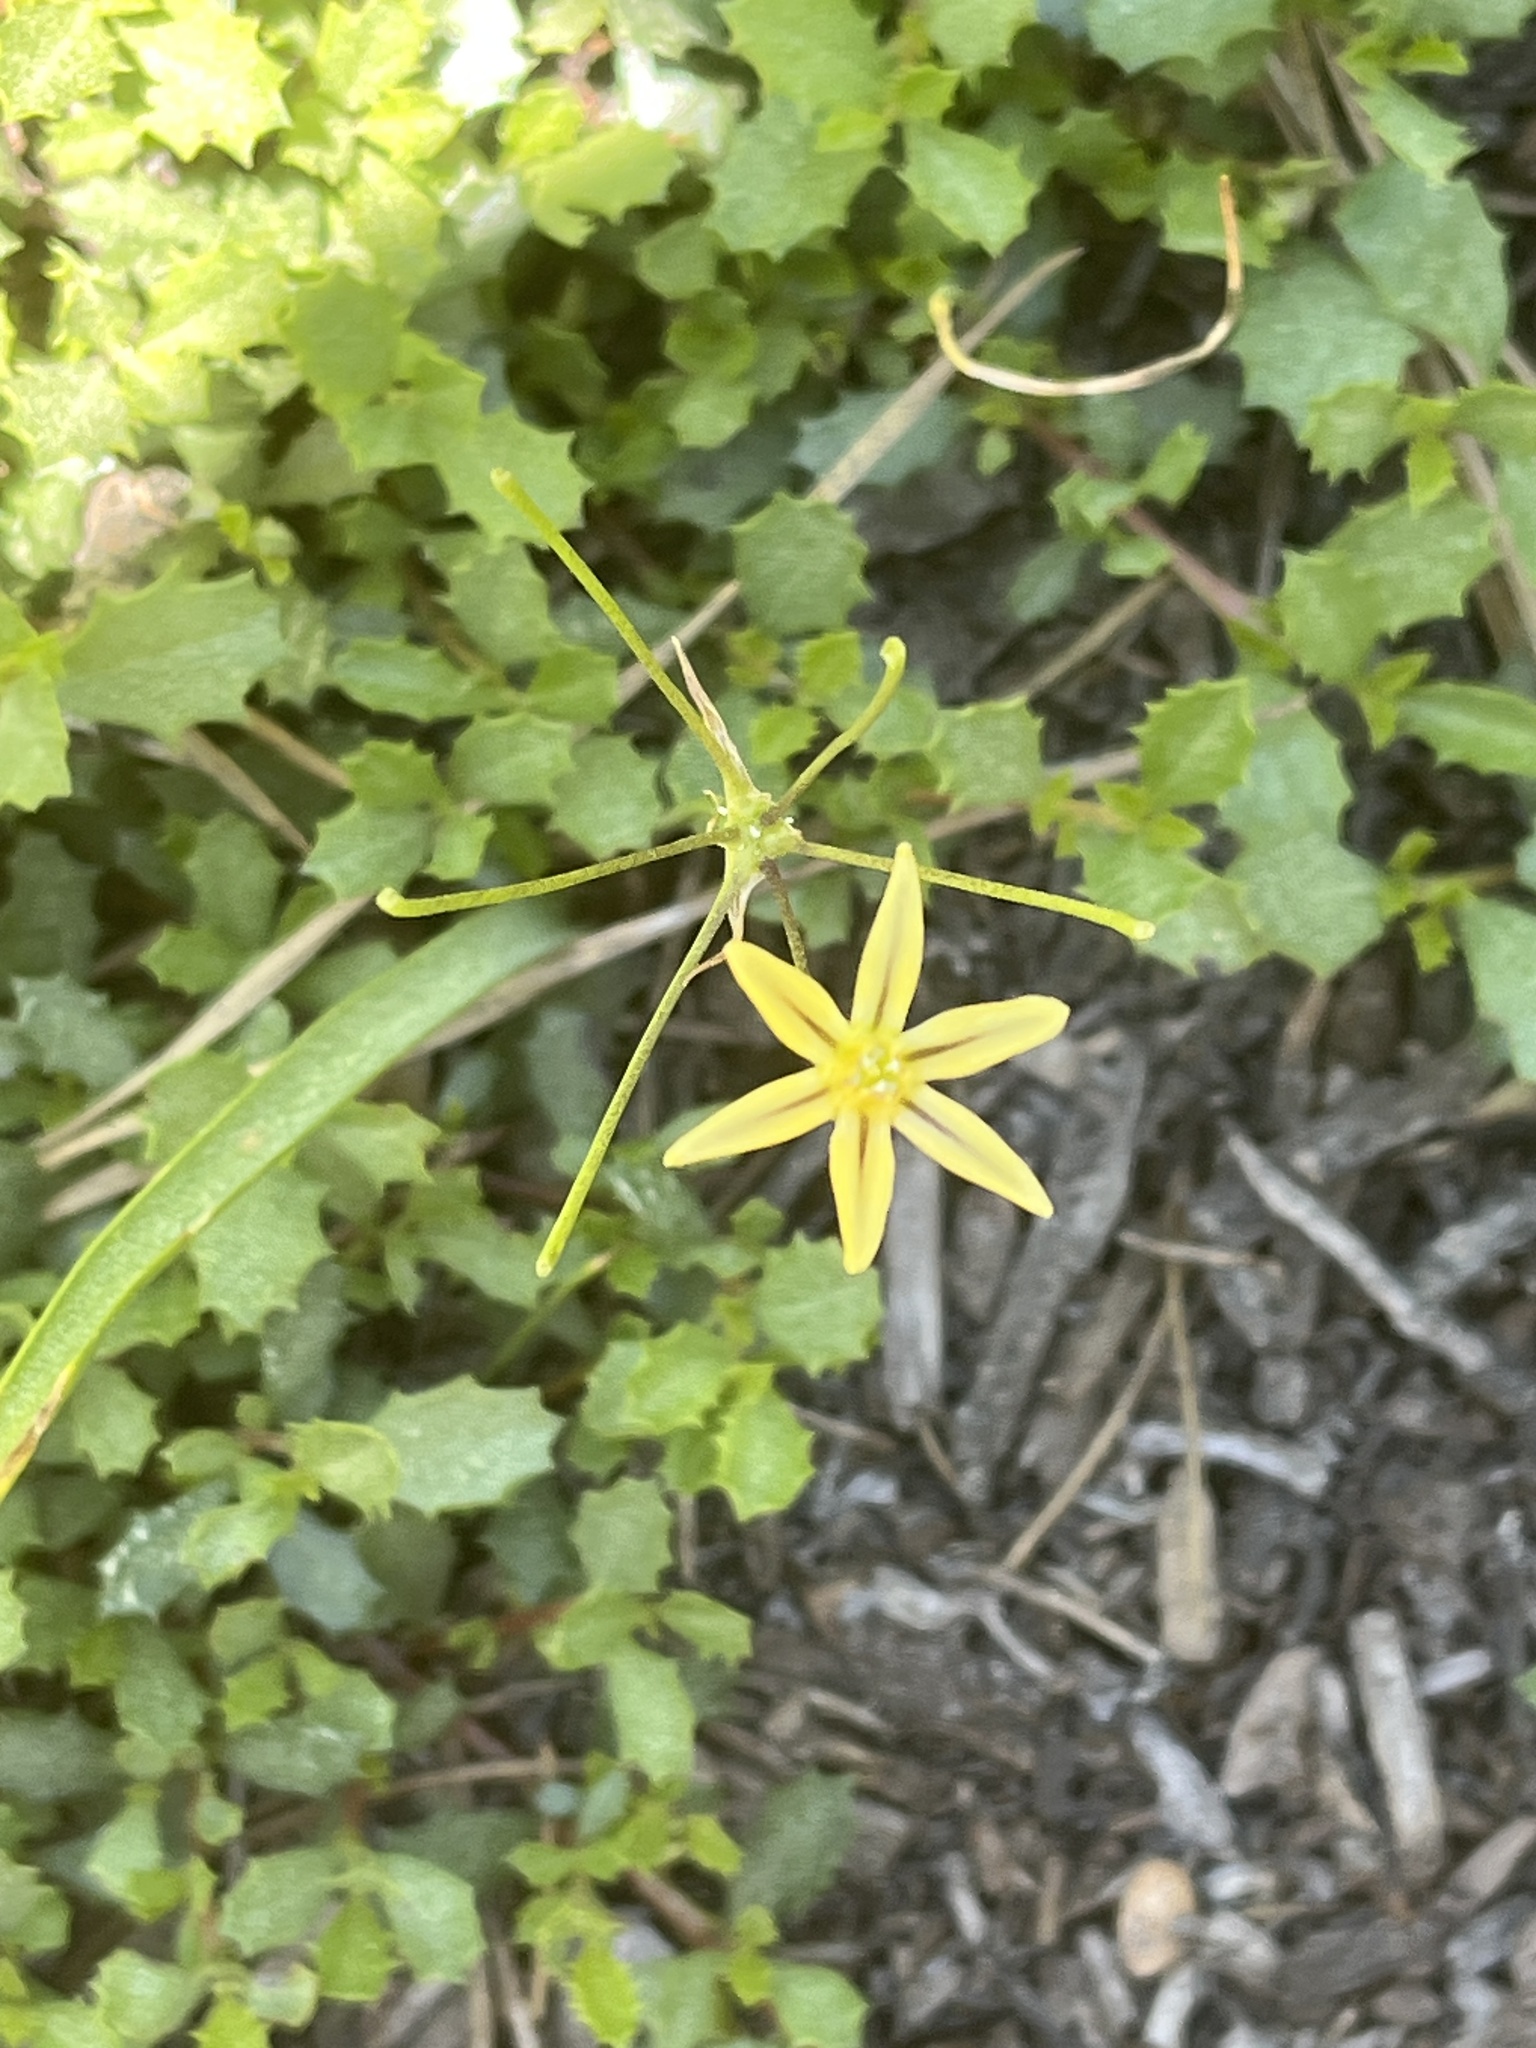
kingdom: Plantae
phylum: Tracheophyta
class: Liliopsida
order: Asparagales
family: Asparagaceae
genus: Triteleia
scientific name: Triteleia ixioides
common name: Yellow-brodiaea
